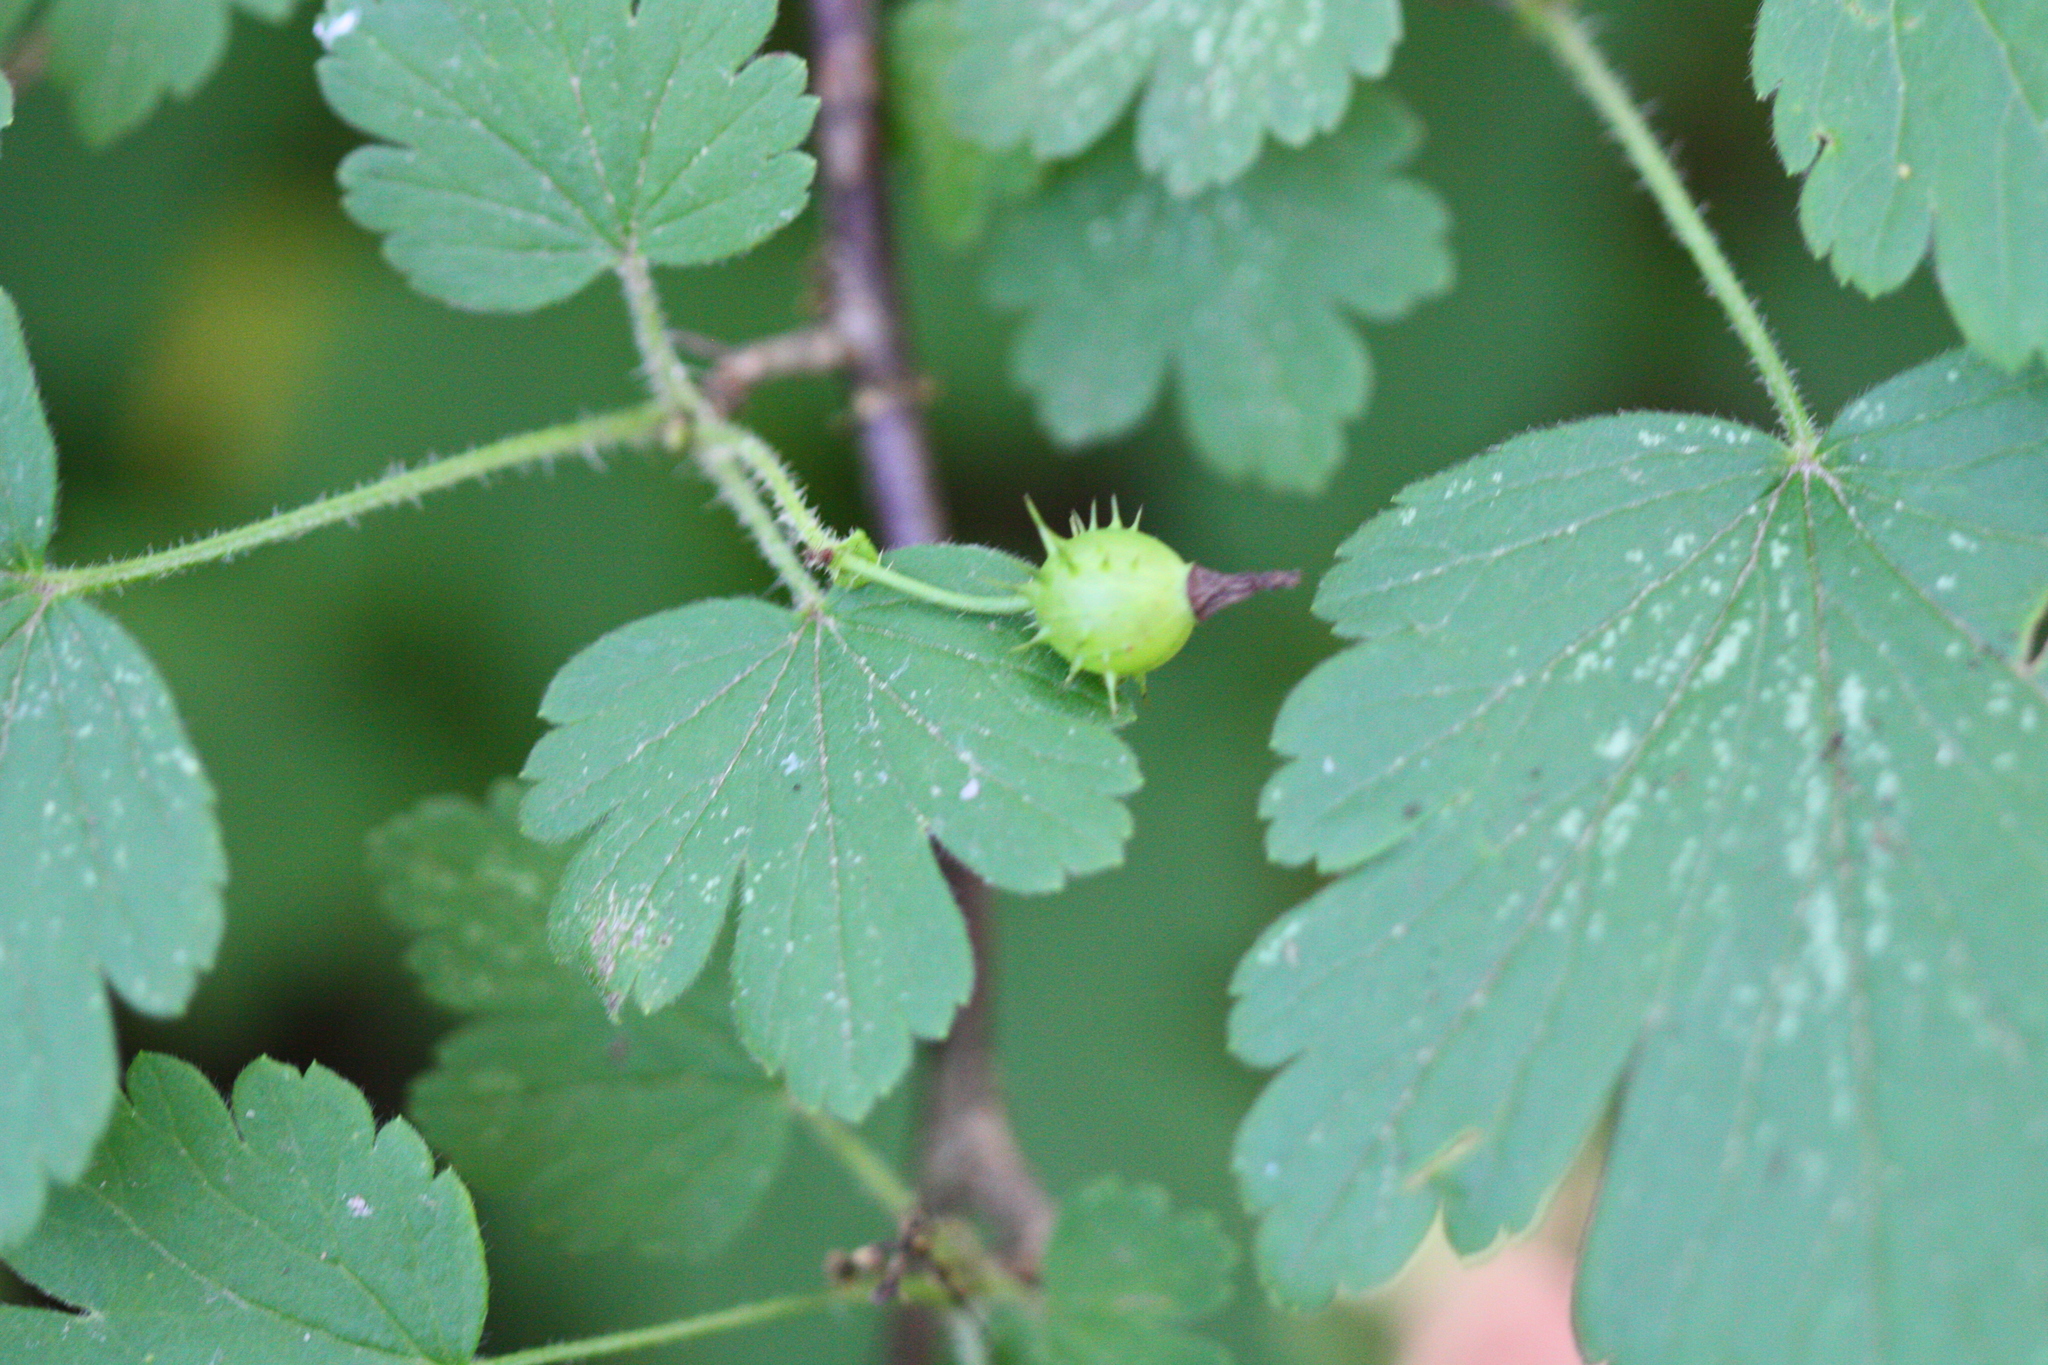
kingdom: Plantae
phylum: Tracheophyta
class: Magnoliopsida
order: Saxifragales
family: Grossulariaceae
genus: Ribes
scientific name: Ribes cynosbati
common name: American gooseberry
